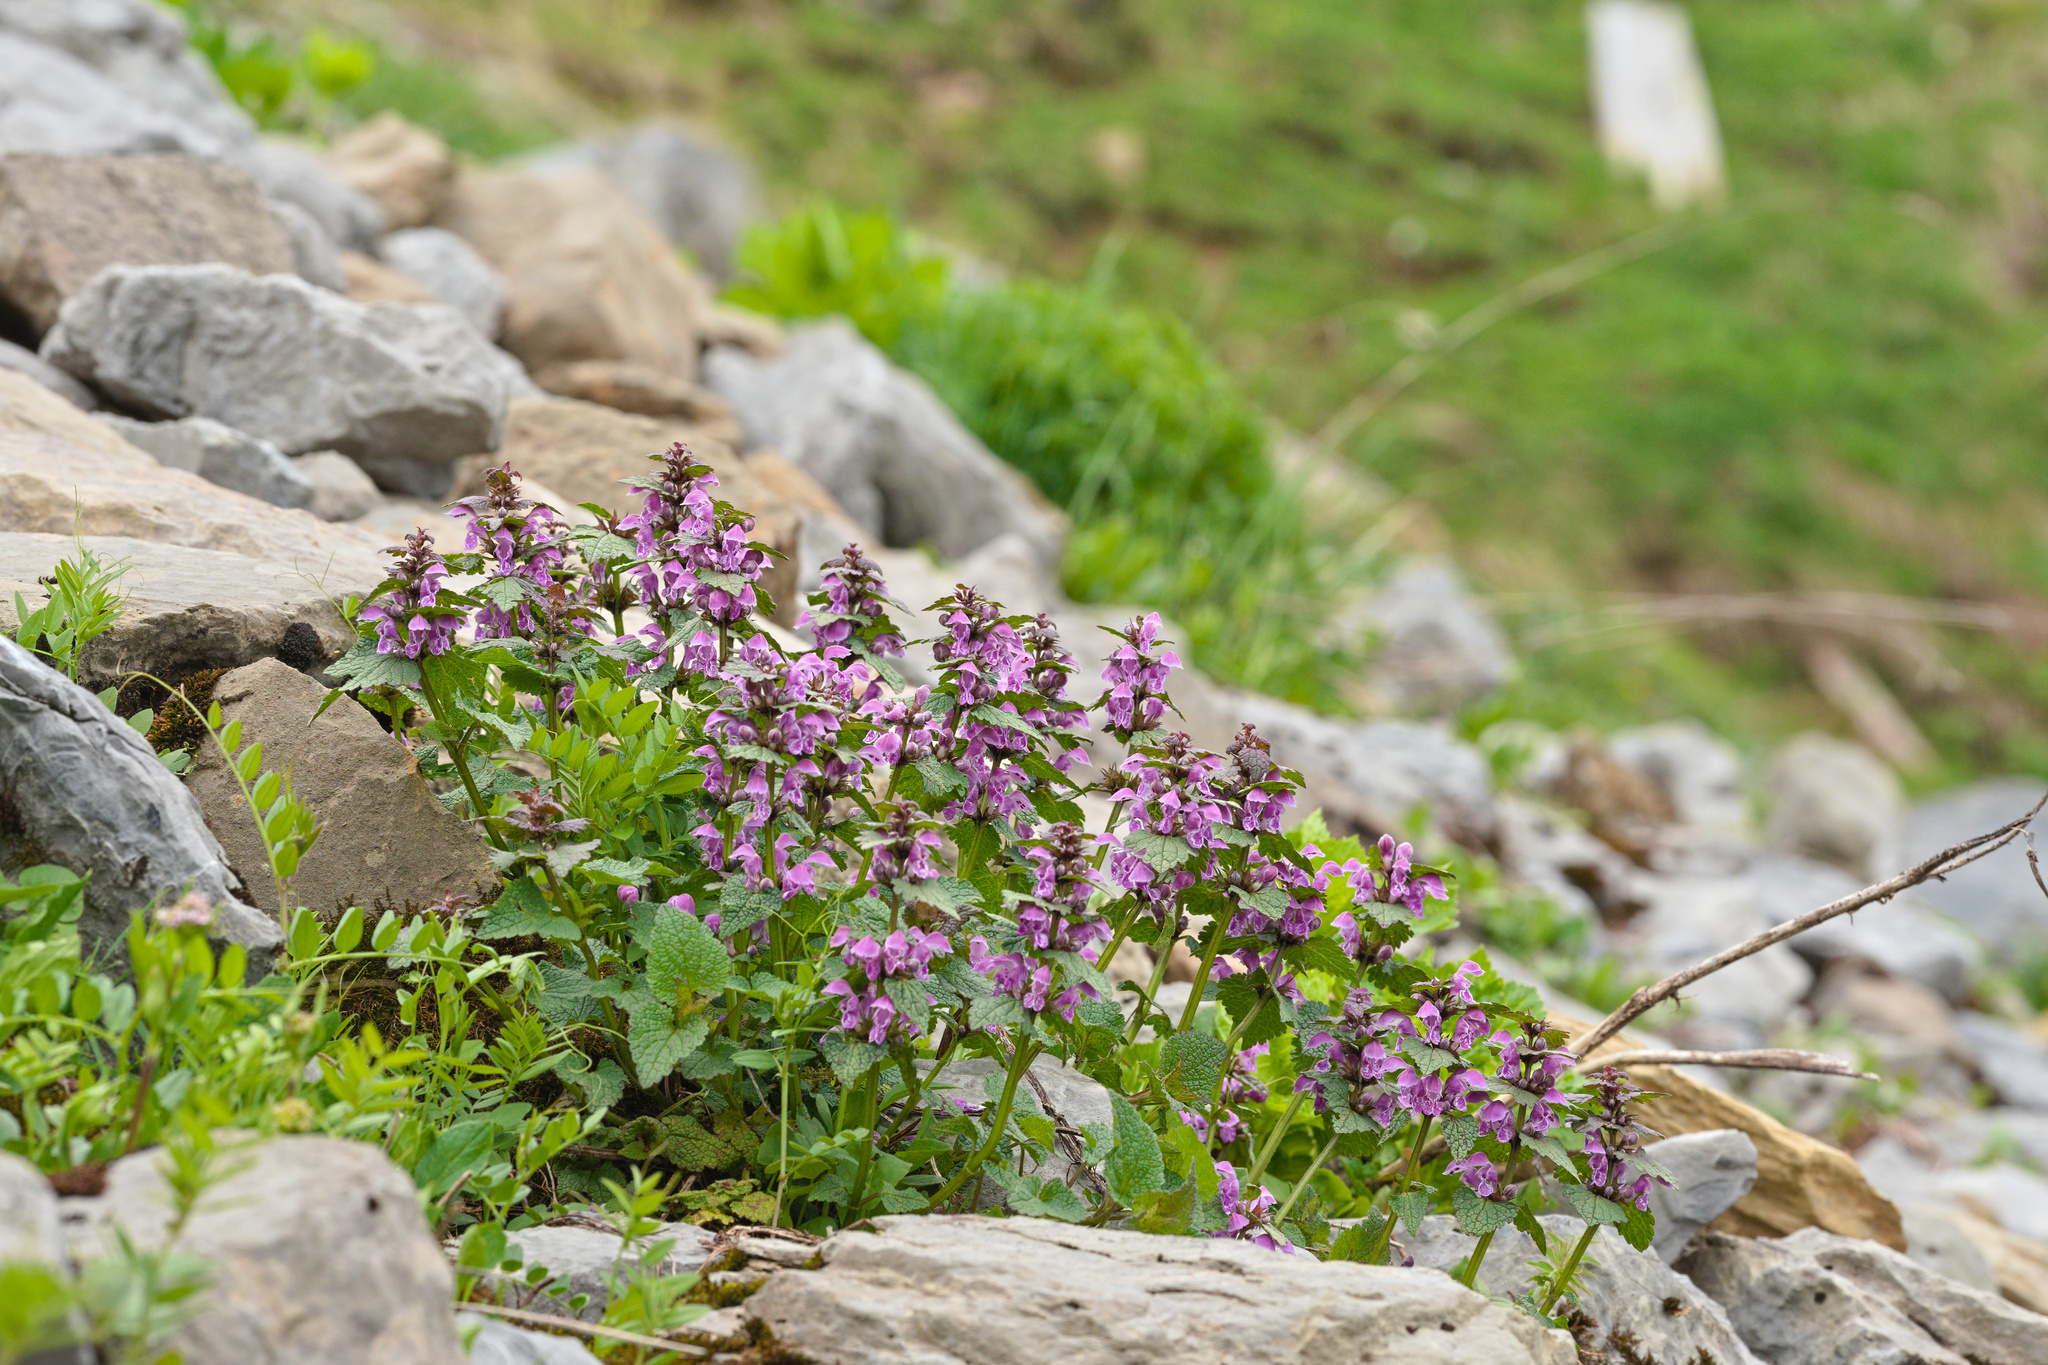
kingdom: Plantae
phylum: Tracheophyta
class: Magnoliopsida
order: Lamiales
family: Lamiaceae
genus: Lamium
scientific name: Lamium maculatum
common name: Spotted dead-nettle
